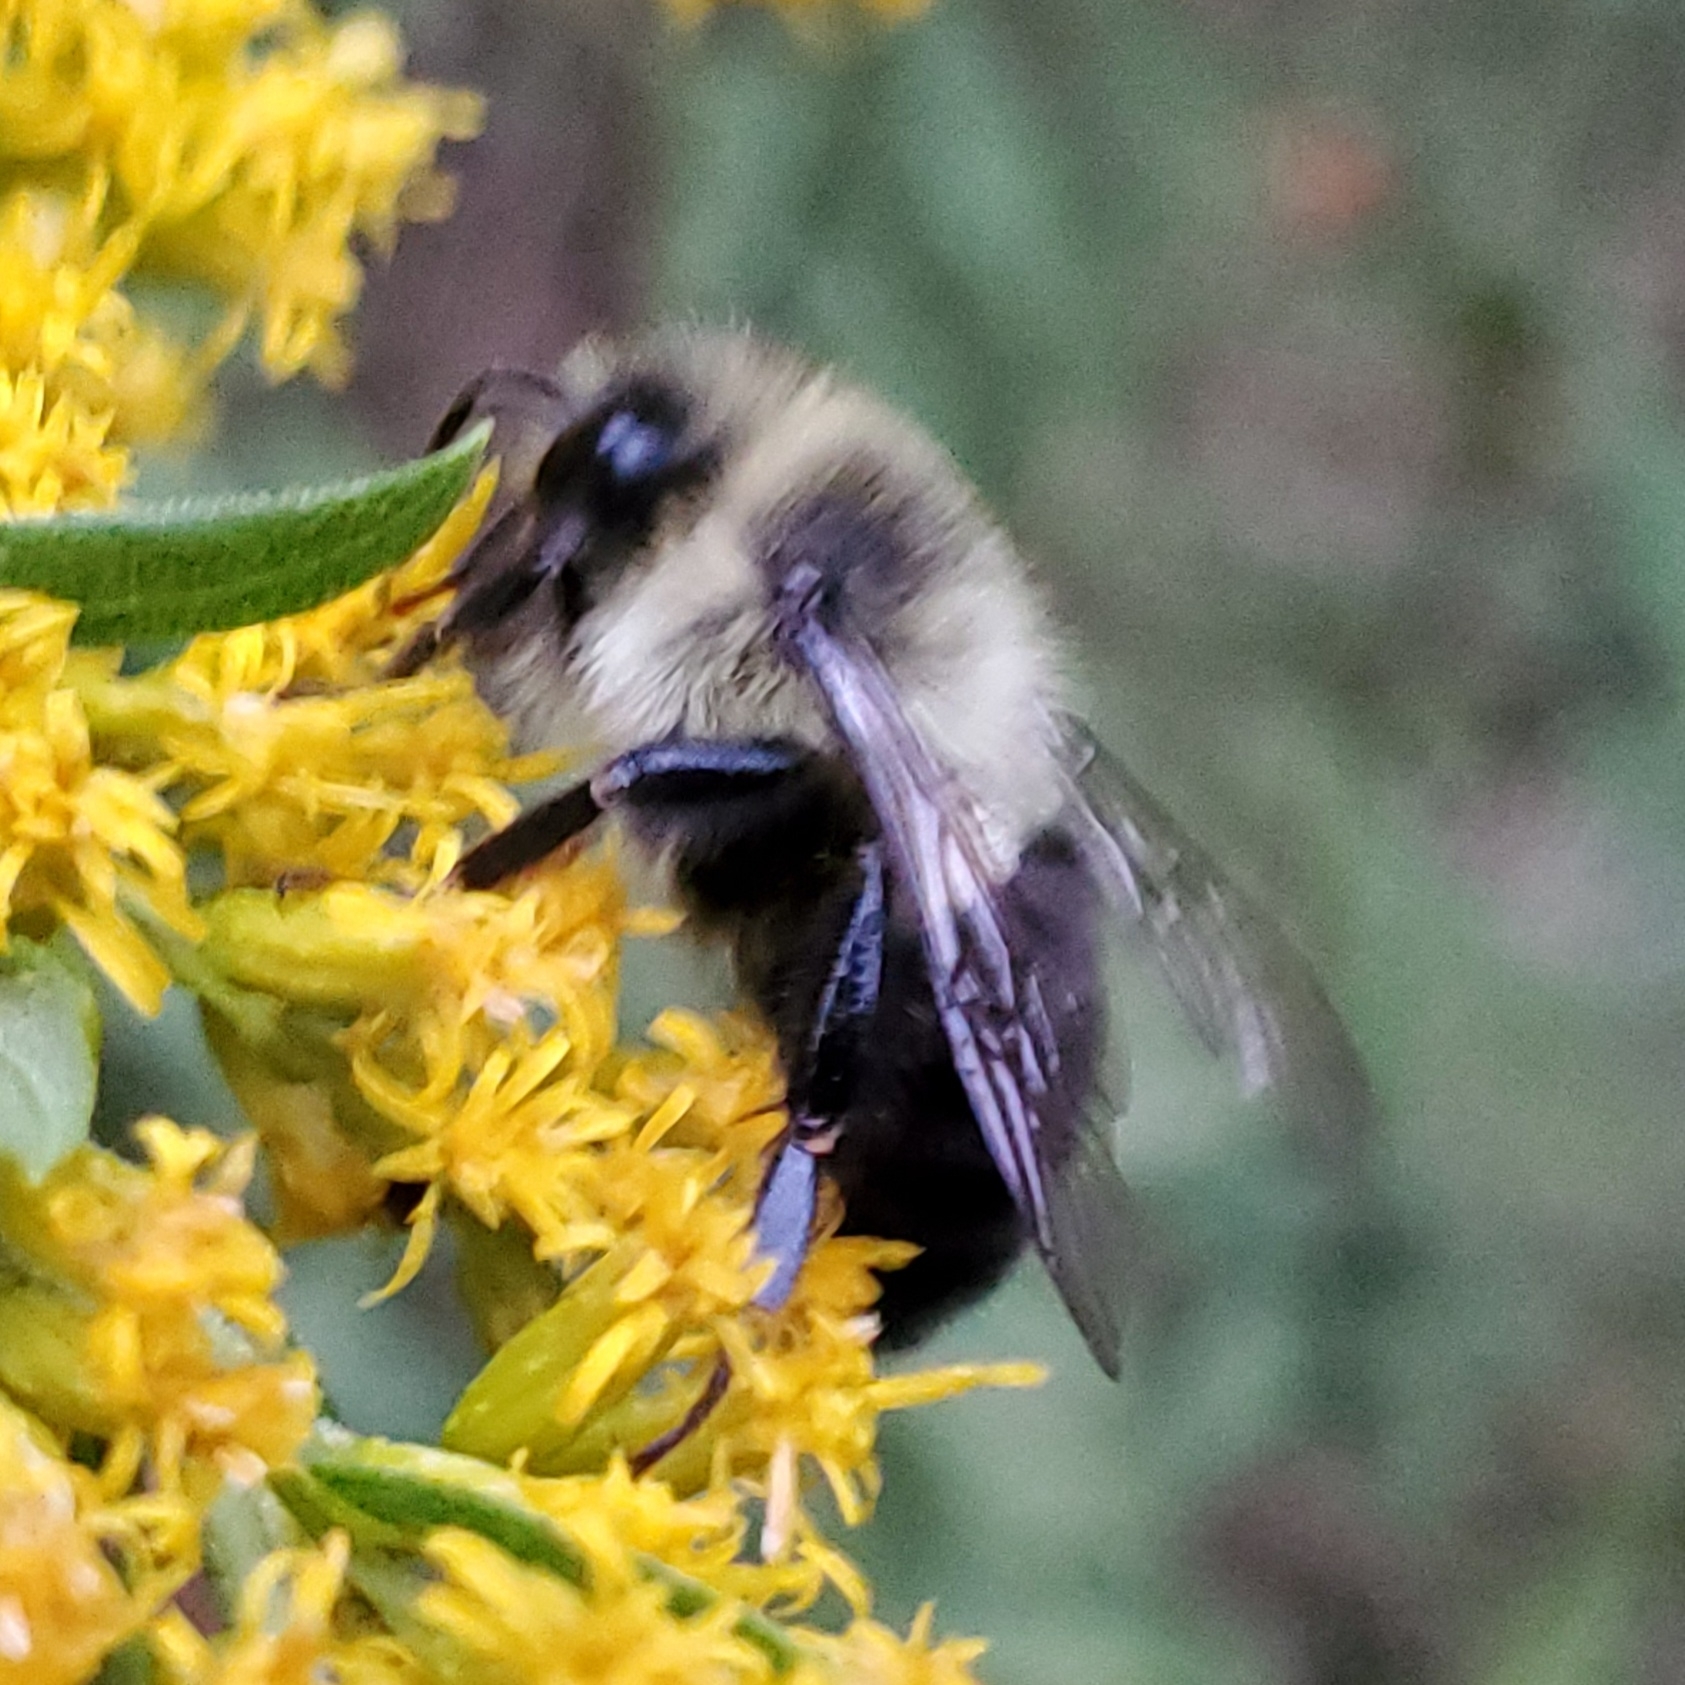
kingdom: Animalia
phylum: Arthropoda
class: Insecta
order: Hymenoptera
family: Apidae
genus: Bombus
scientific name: Bombus impatiens
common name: Common eastern bumble bee
